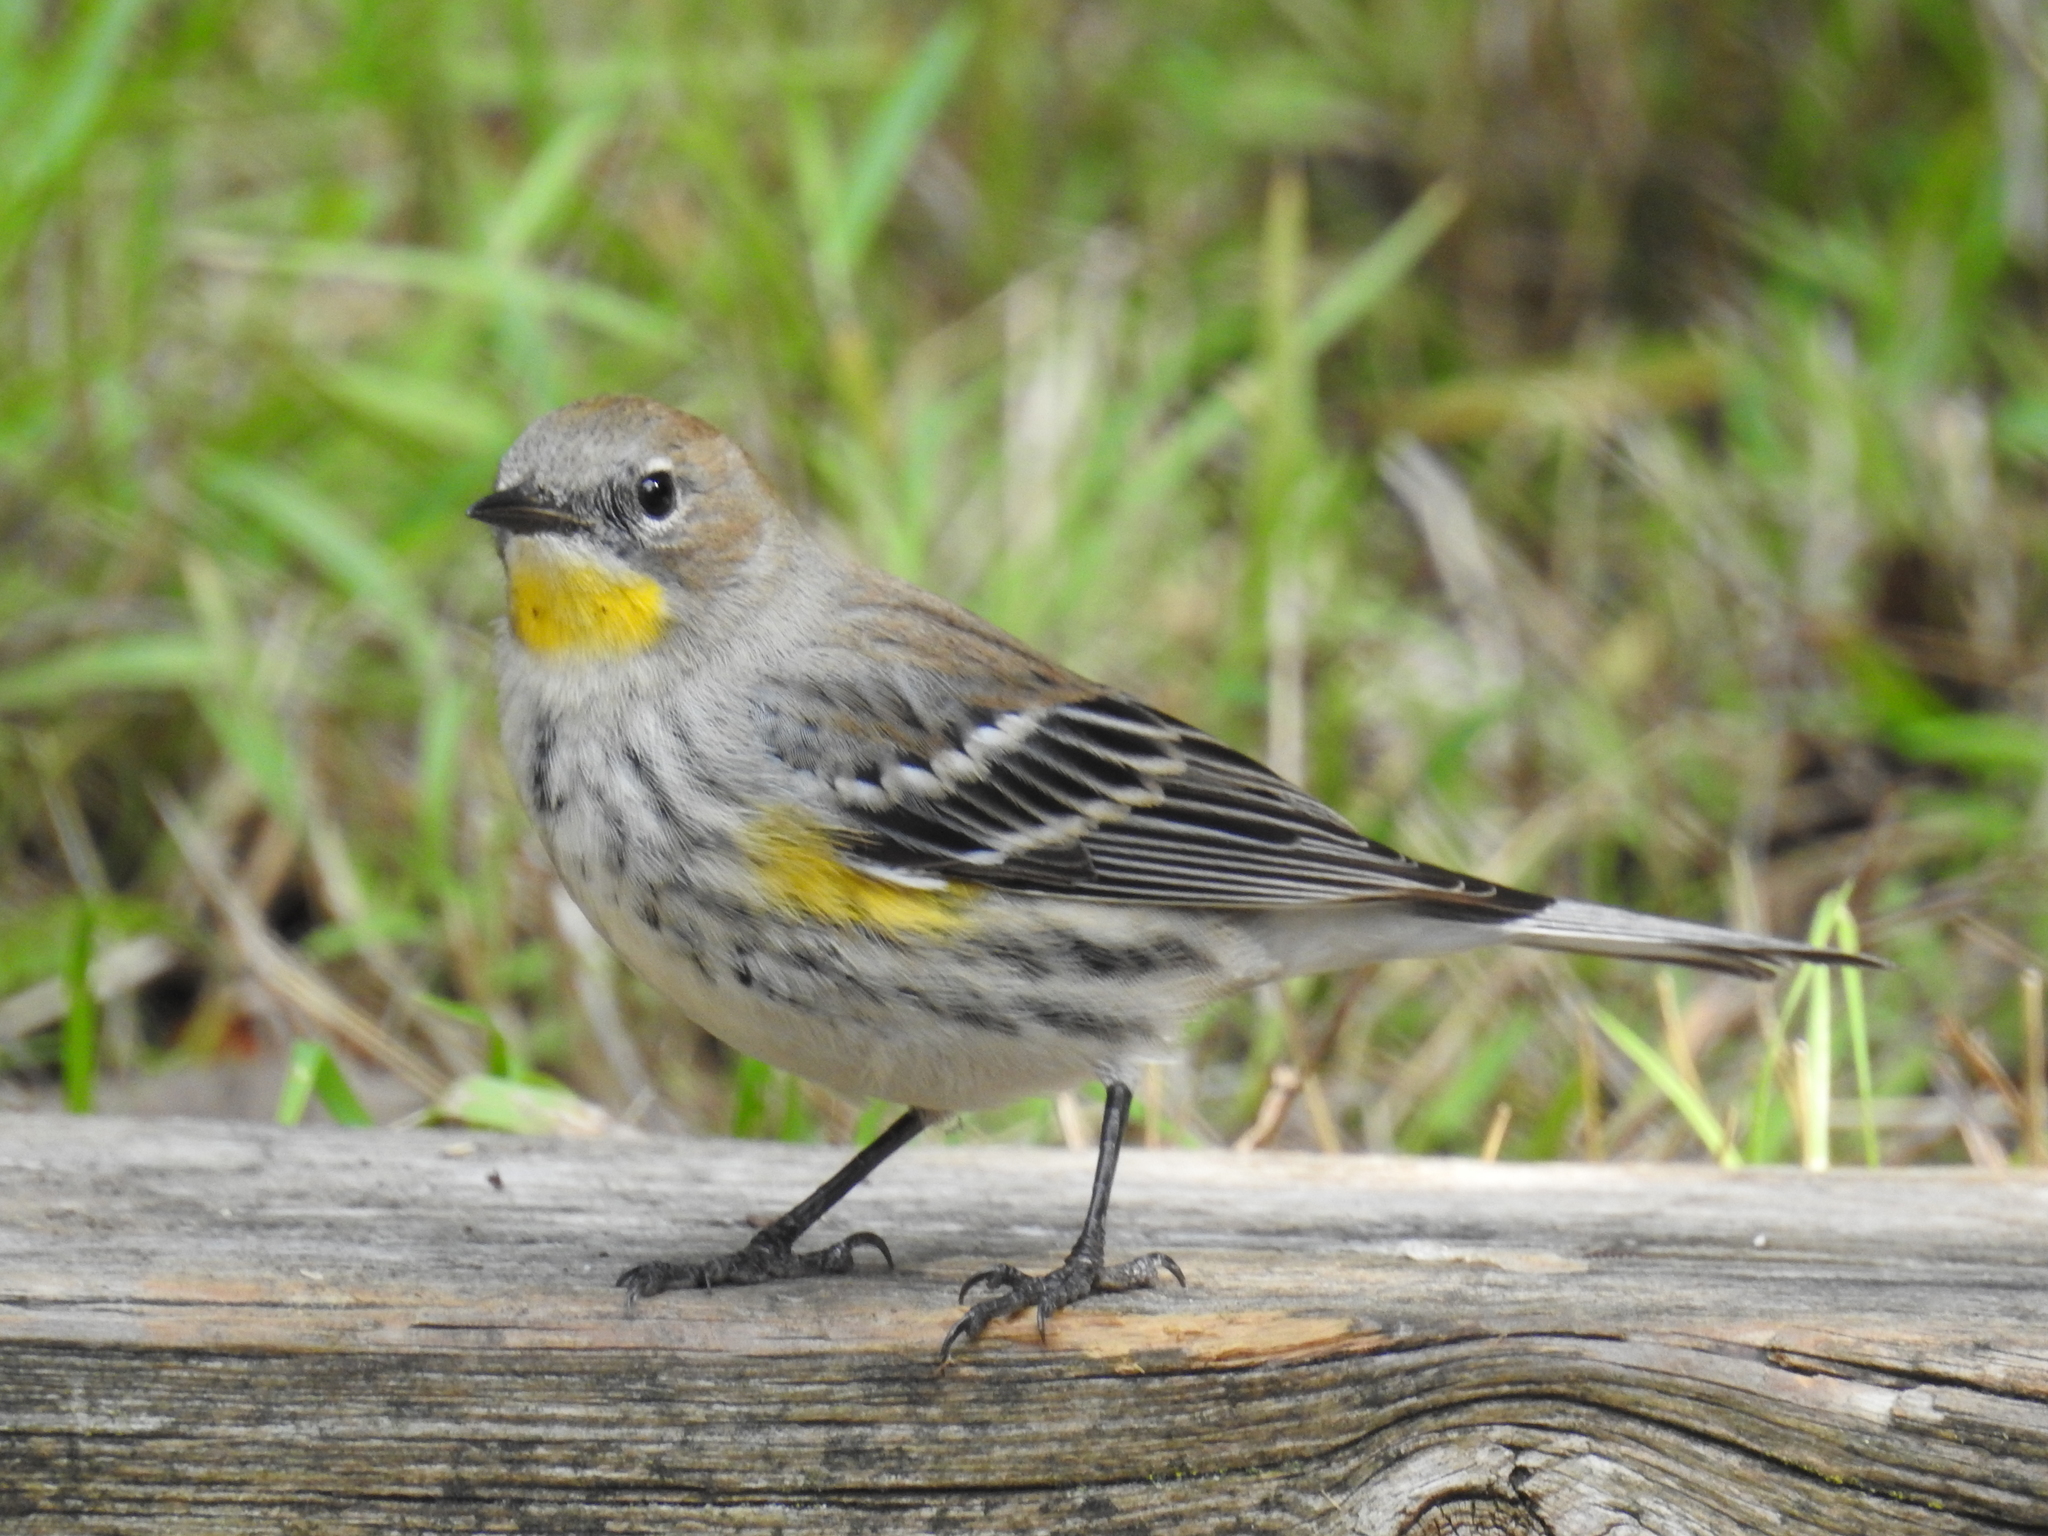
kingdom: Animalia
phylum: Chordata
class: Aves
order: Passeriformes
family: Parulidae
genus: Setophaga
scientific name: Setophaga
